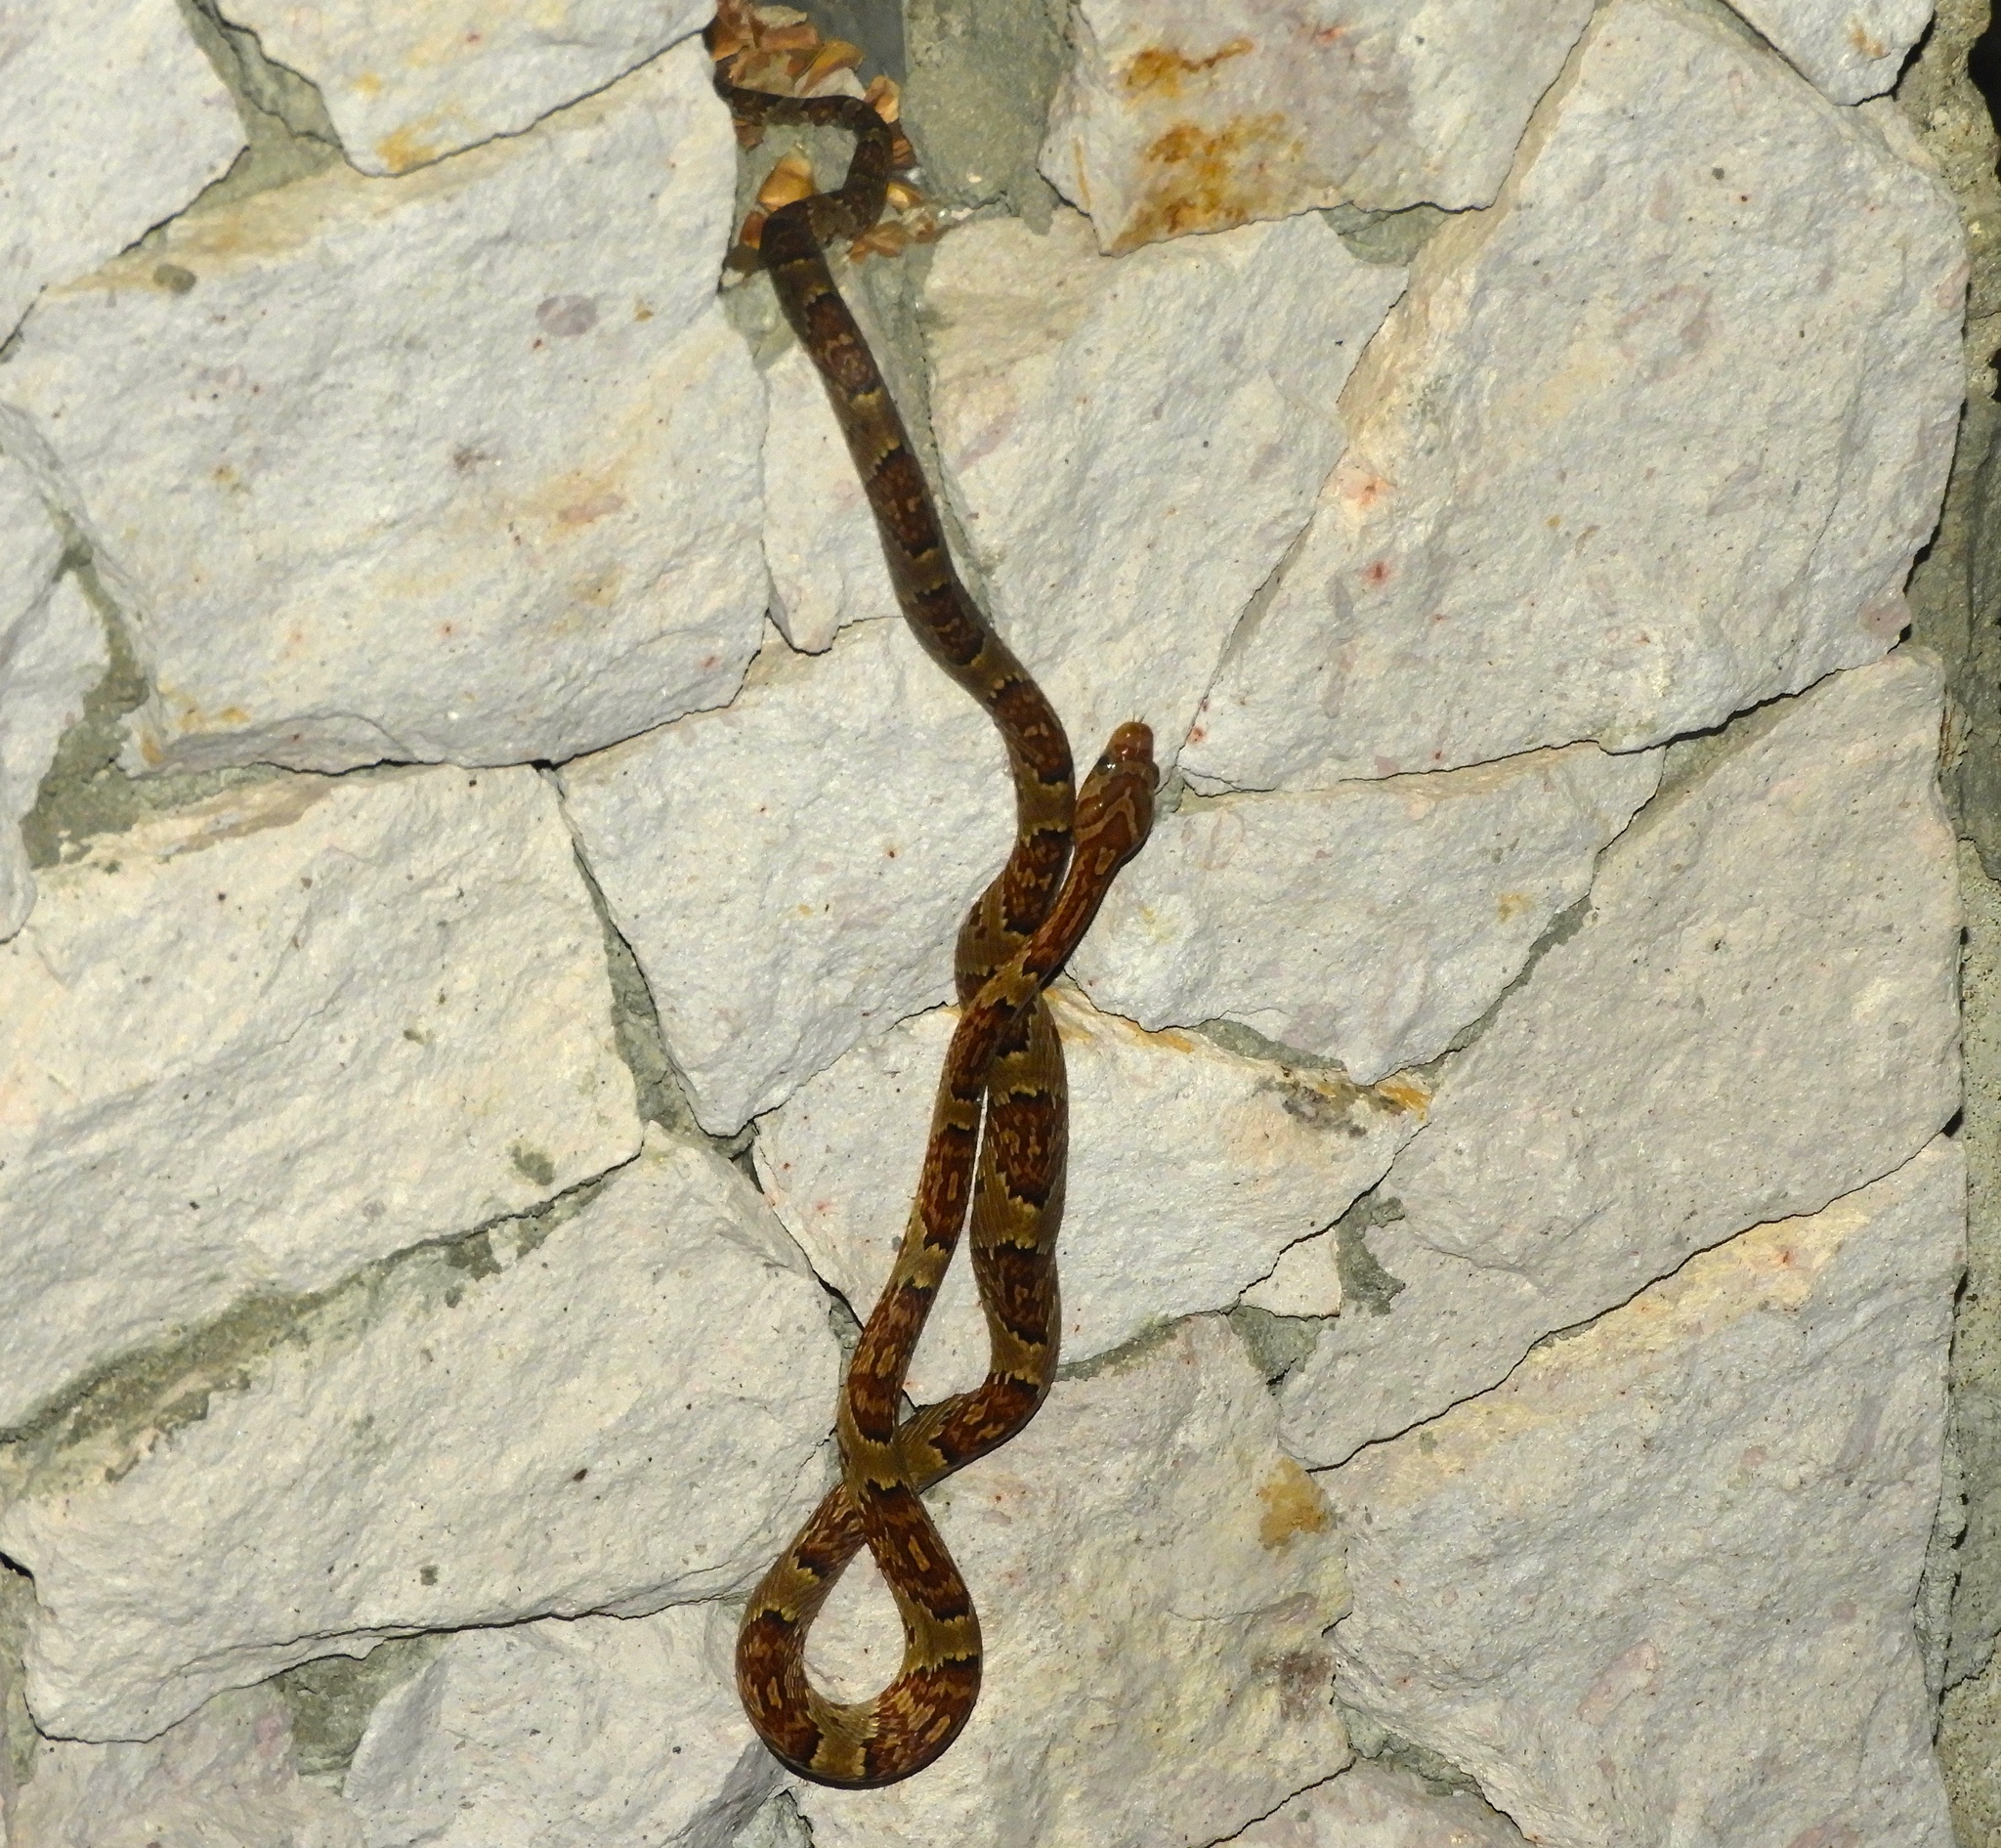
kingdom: Animalia
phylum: Chordata
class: Squamata
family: Colubridae
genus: Trimorphodon
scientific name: Trimorphodon paucimaculatus
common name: Sinaloan lyresnake
